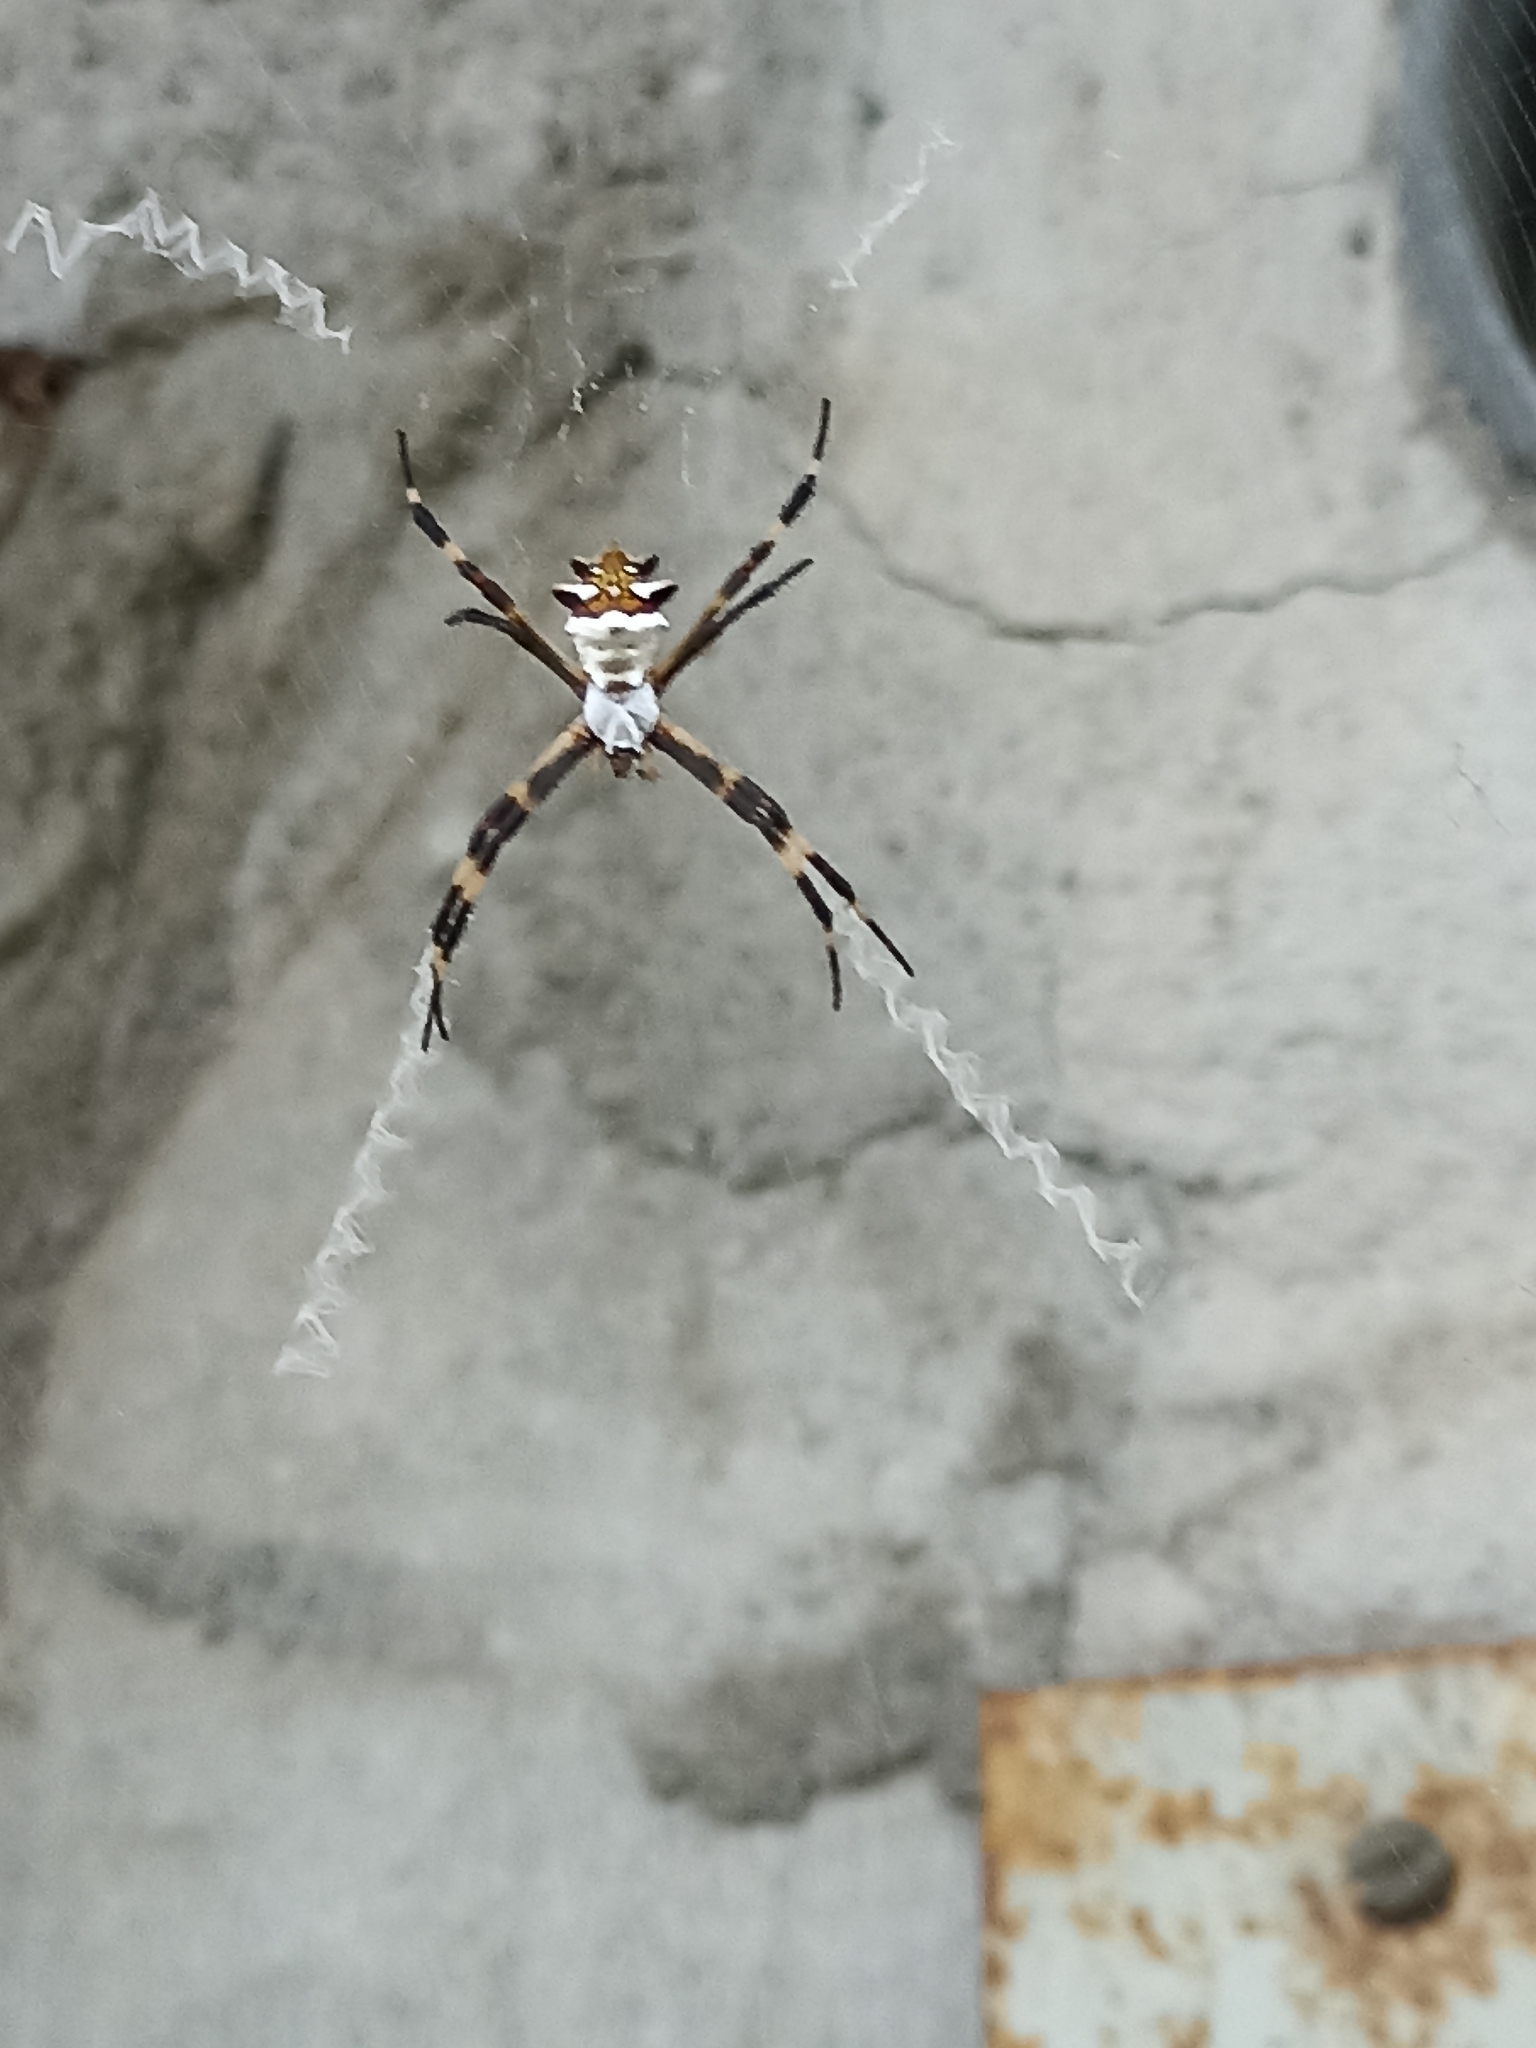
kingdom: Animalia
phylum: Arthropoda
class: Arachnida
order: Araneae
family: Araneidae
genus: Argiope
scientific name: Argiope argentata
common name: Orb weavers
